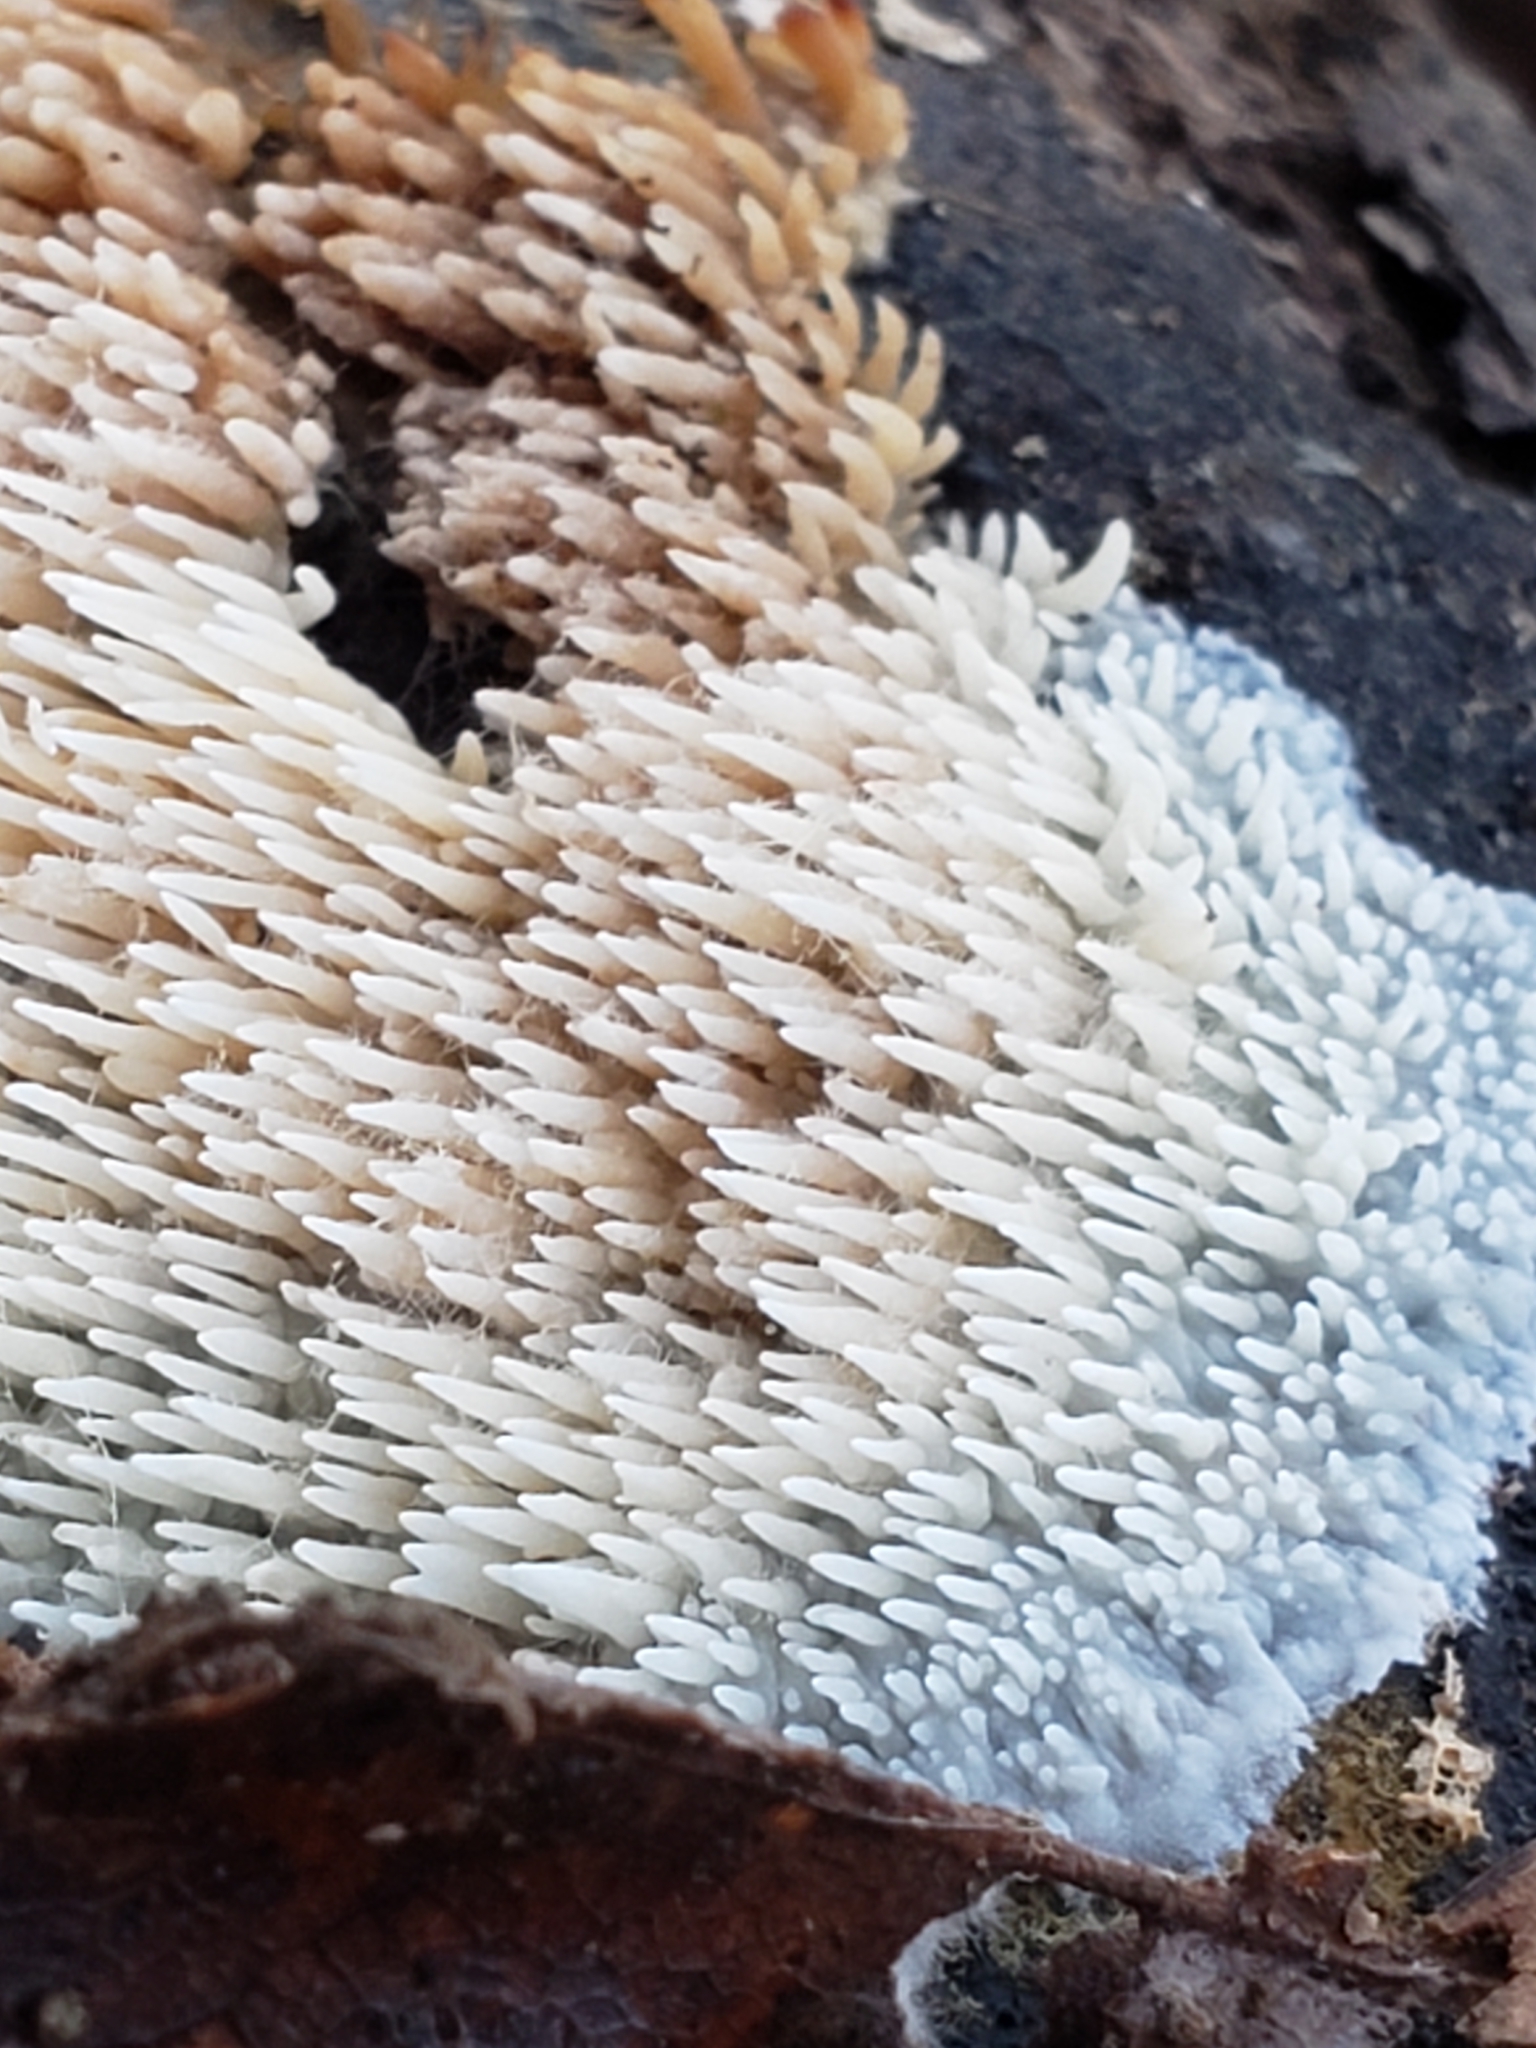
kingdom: Fungi
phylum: Basidiomycota
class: Agaricomycetes
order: Agaricales
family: Radulomycetaceae
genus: Radulomyces
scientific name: Radulomyces copelandii
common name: Asian beauty
